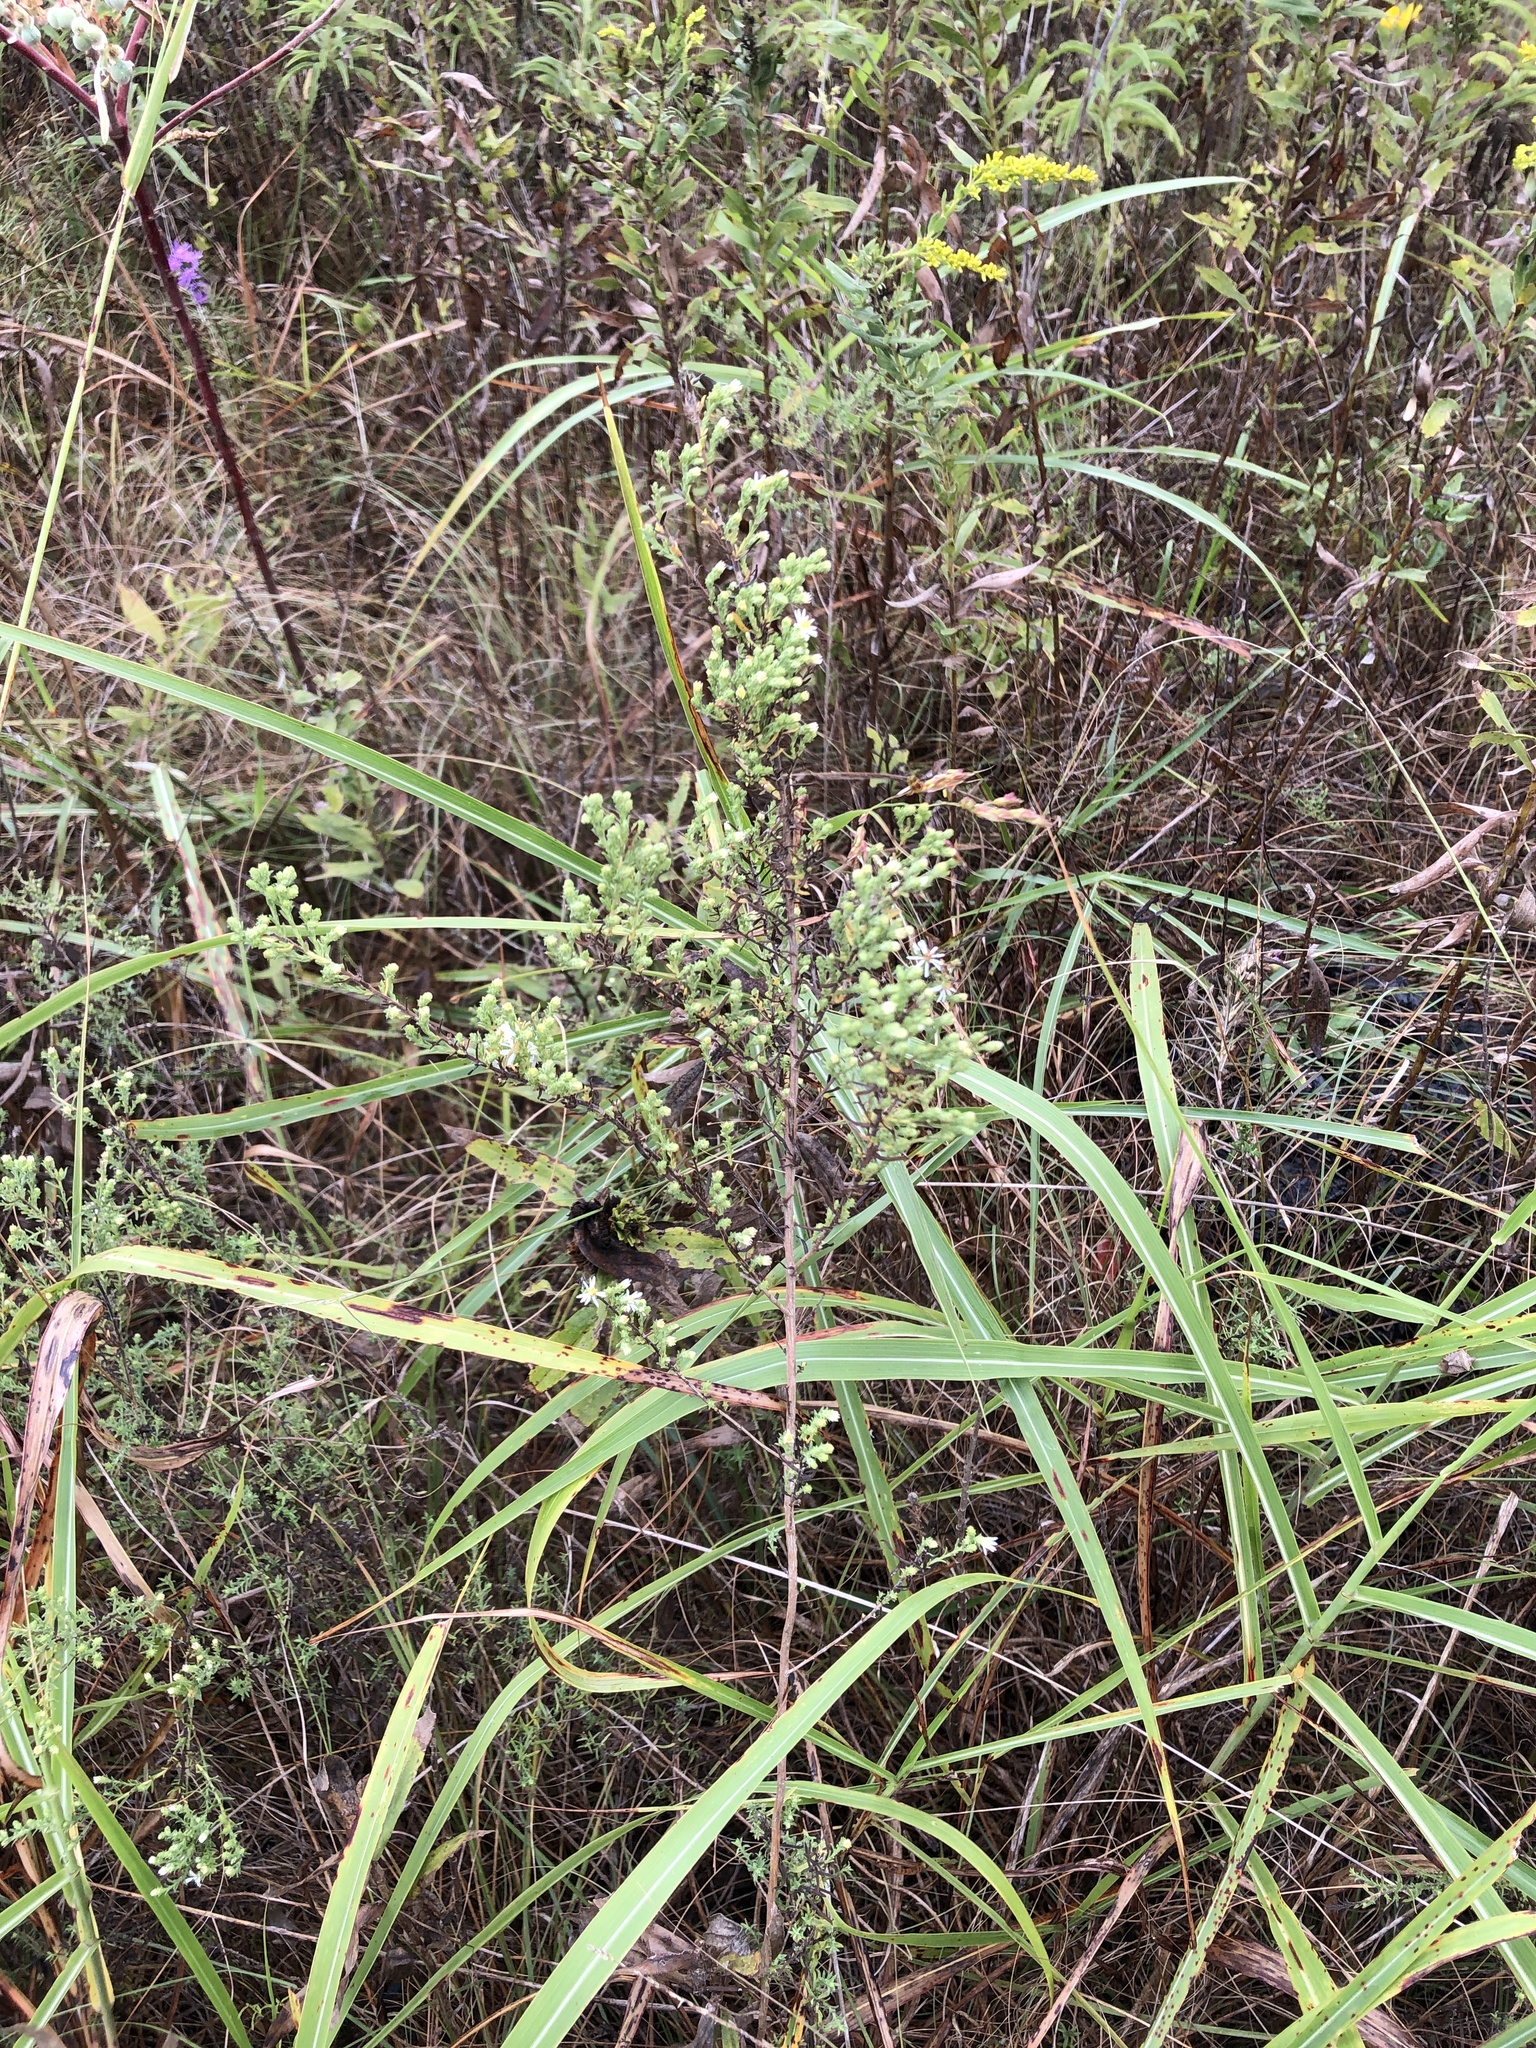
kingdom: Plantae
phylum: Tracheophyta
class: Magnoliopsida
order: Asterales
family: Asteraceae
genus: Symphyotrichum
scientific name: Symphyotrichum ericoides
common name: Heath aster
